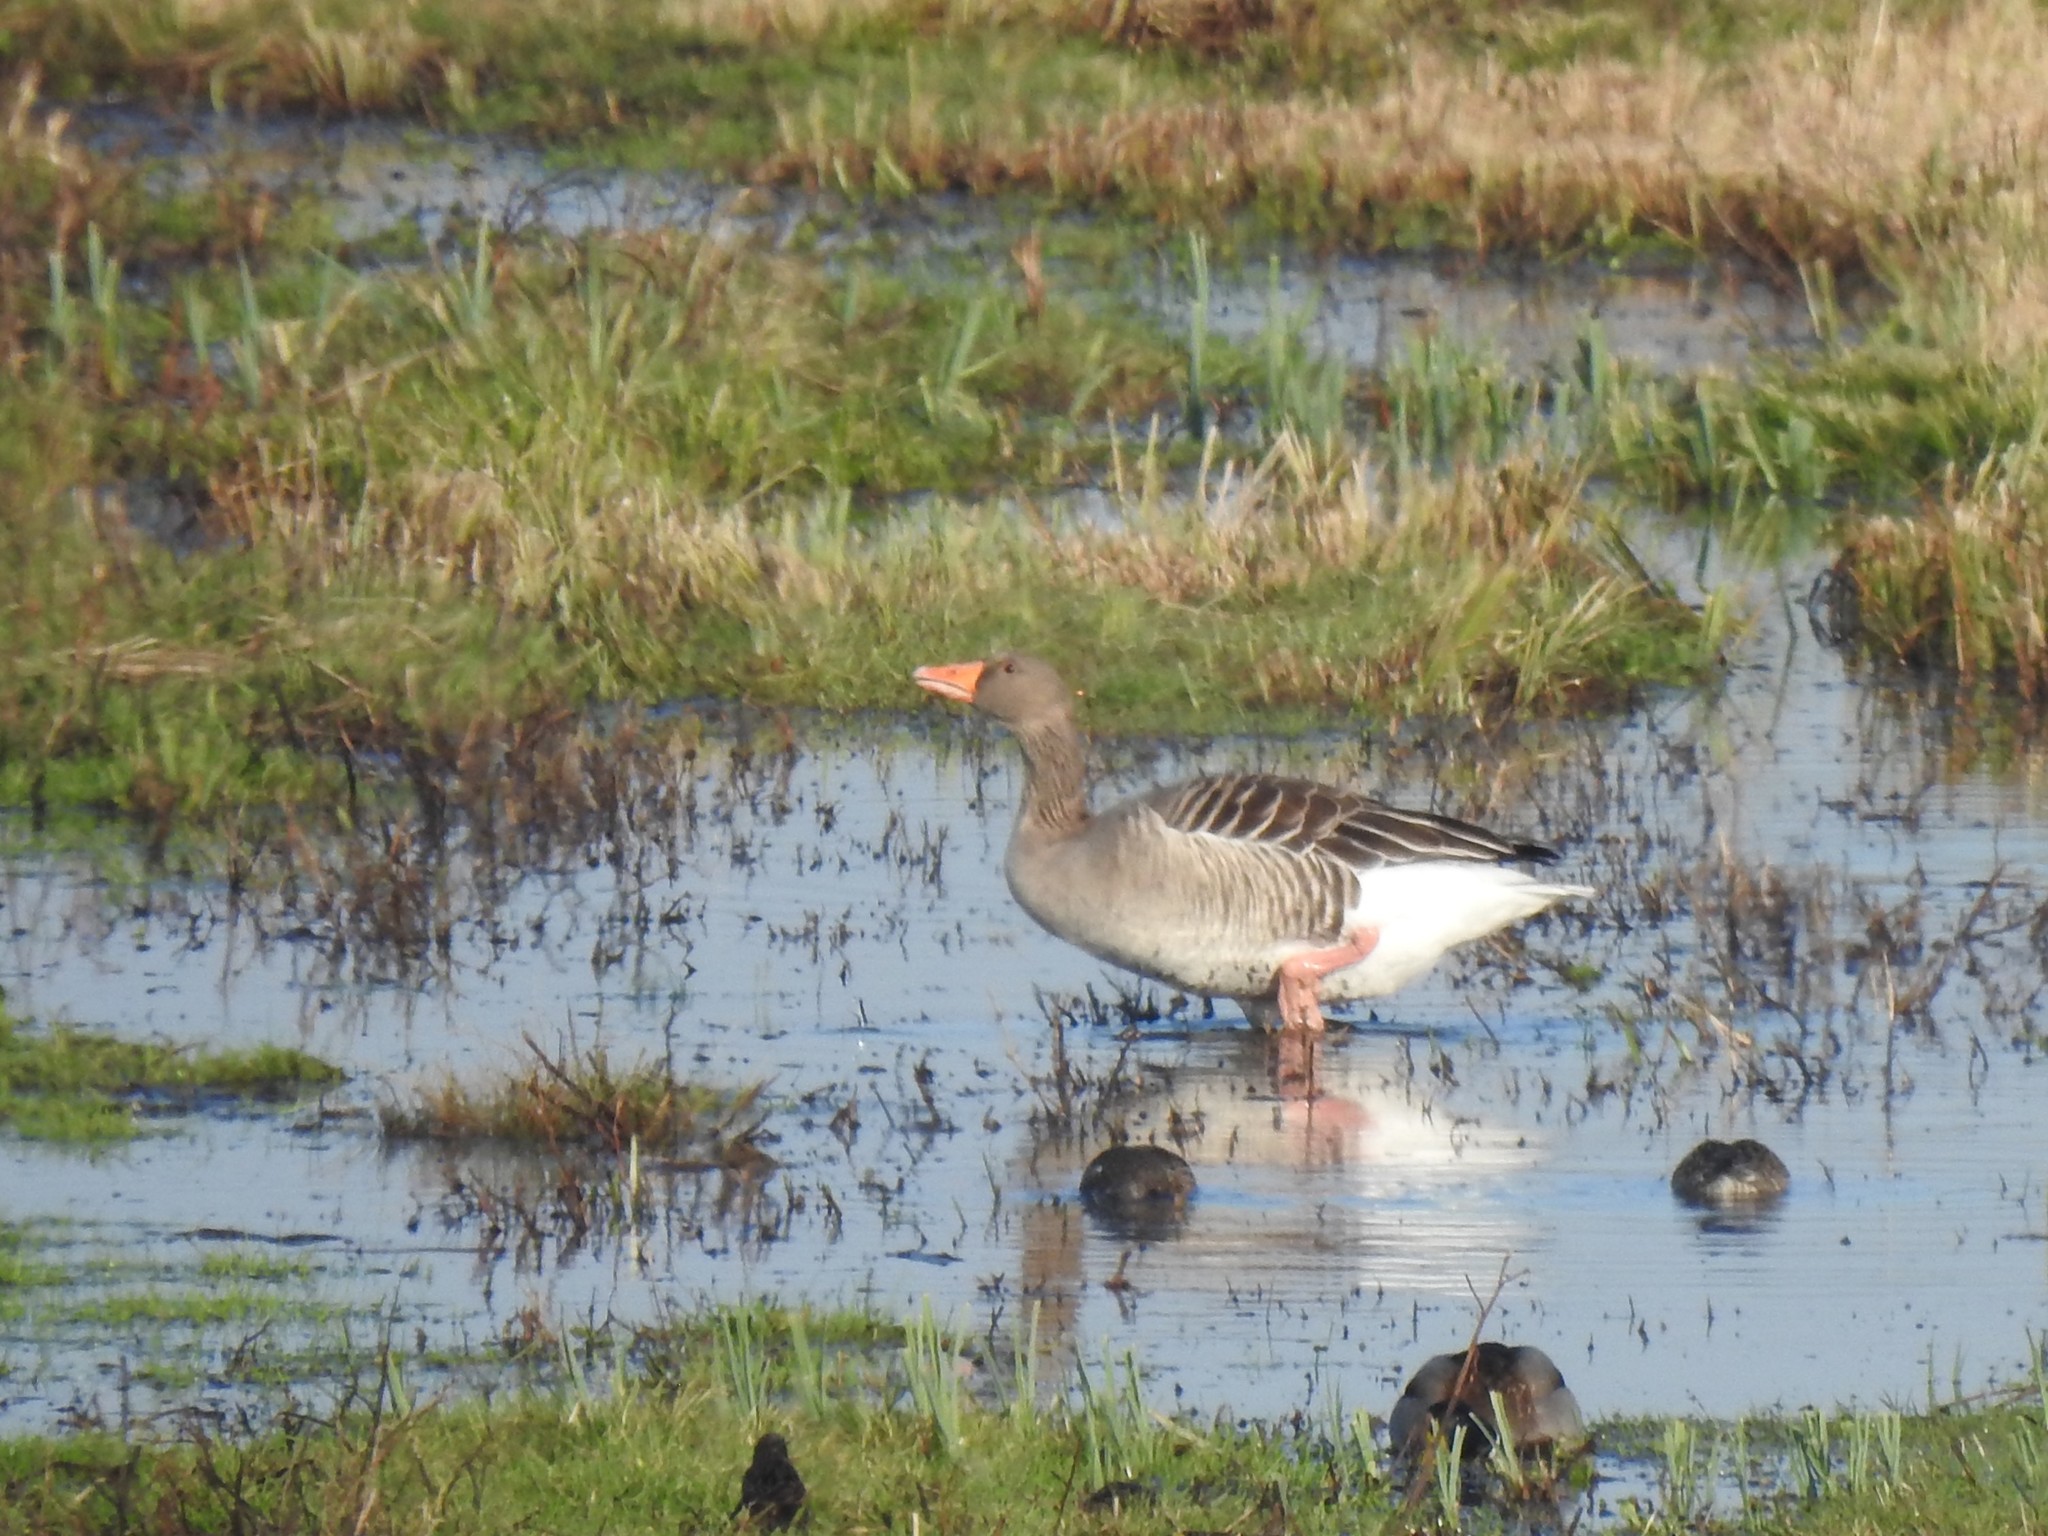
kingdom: Animalia
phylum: Chordata
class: Aves
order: Anseriformes
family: Anatidae
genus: Anser
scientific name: Anser anser
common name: Greylag goose
